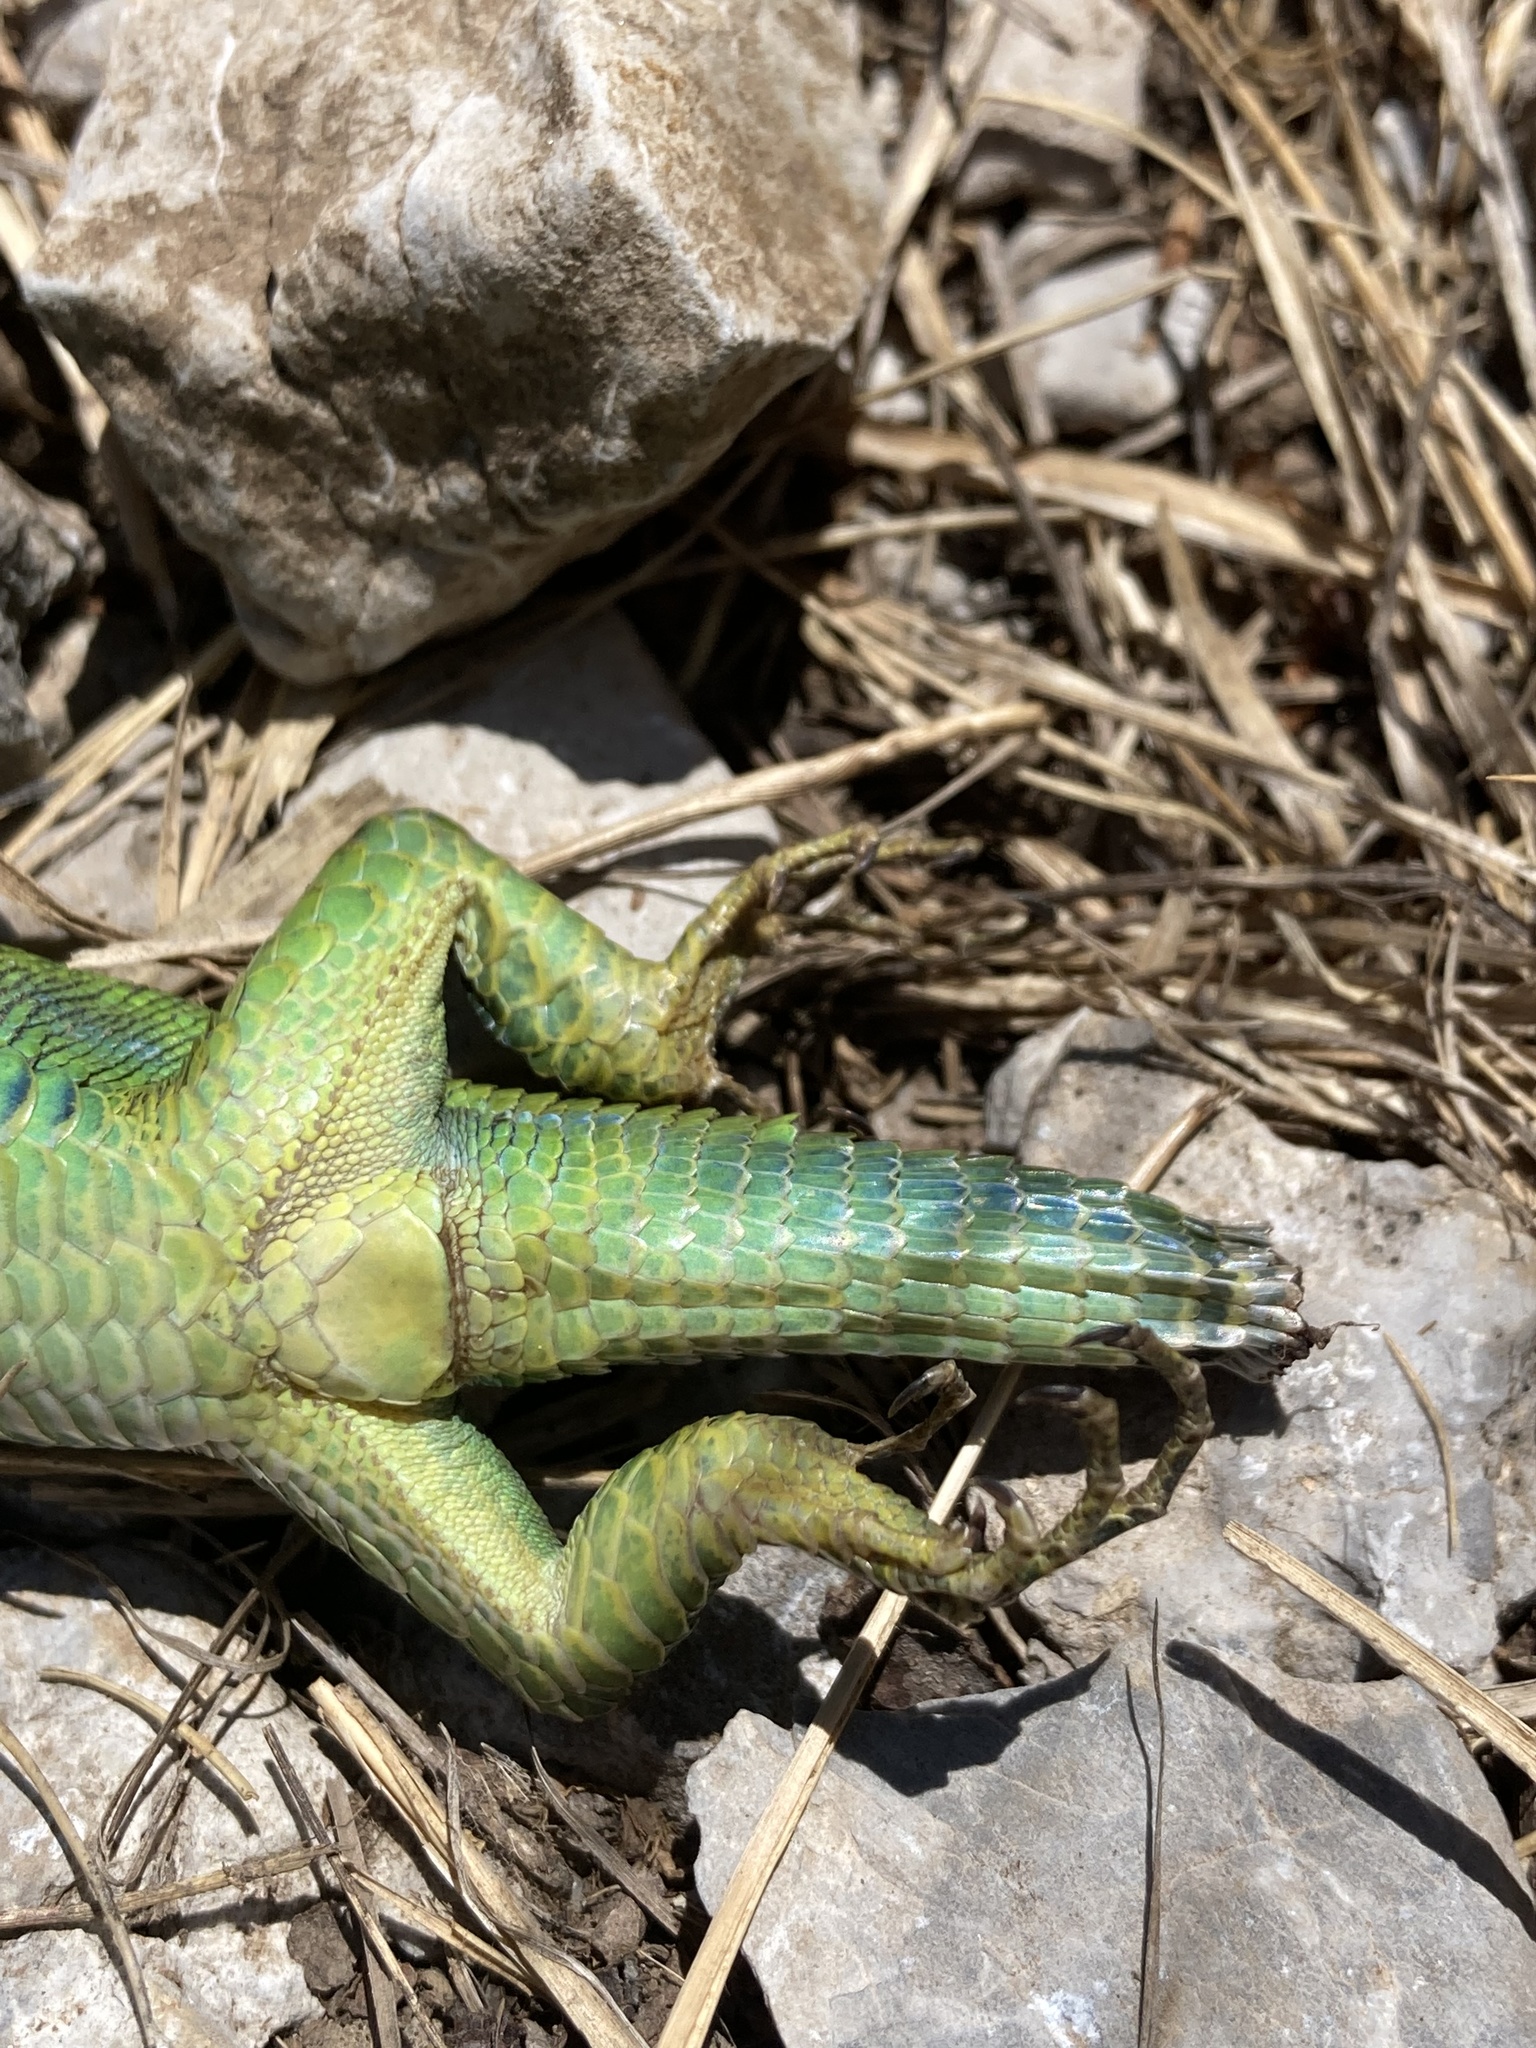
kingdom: Animalia
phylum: Chordata
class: Squamata
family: Lacertidae
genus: Lacerta
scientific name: Lacerta bilineata
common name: Western green lizard
